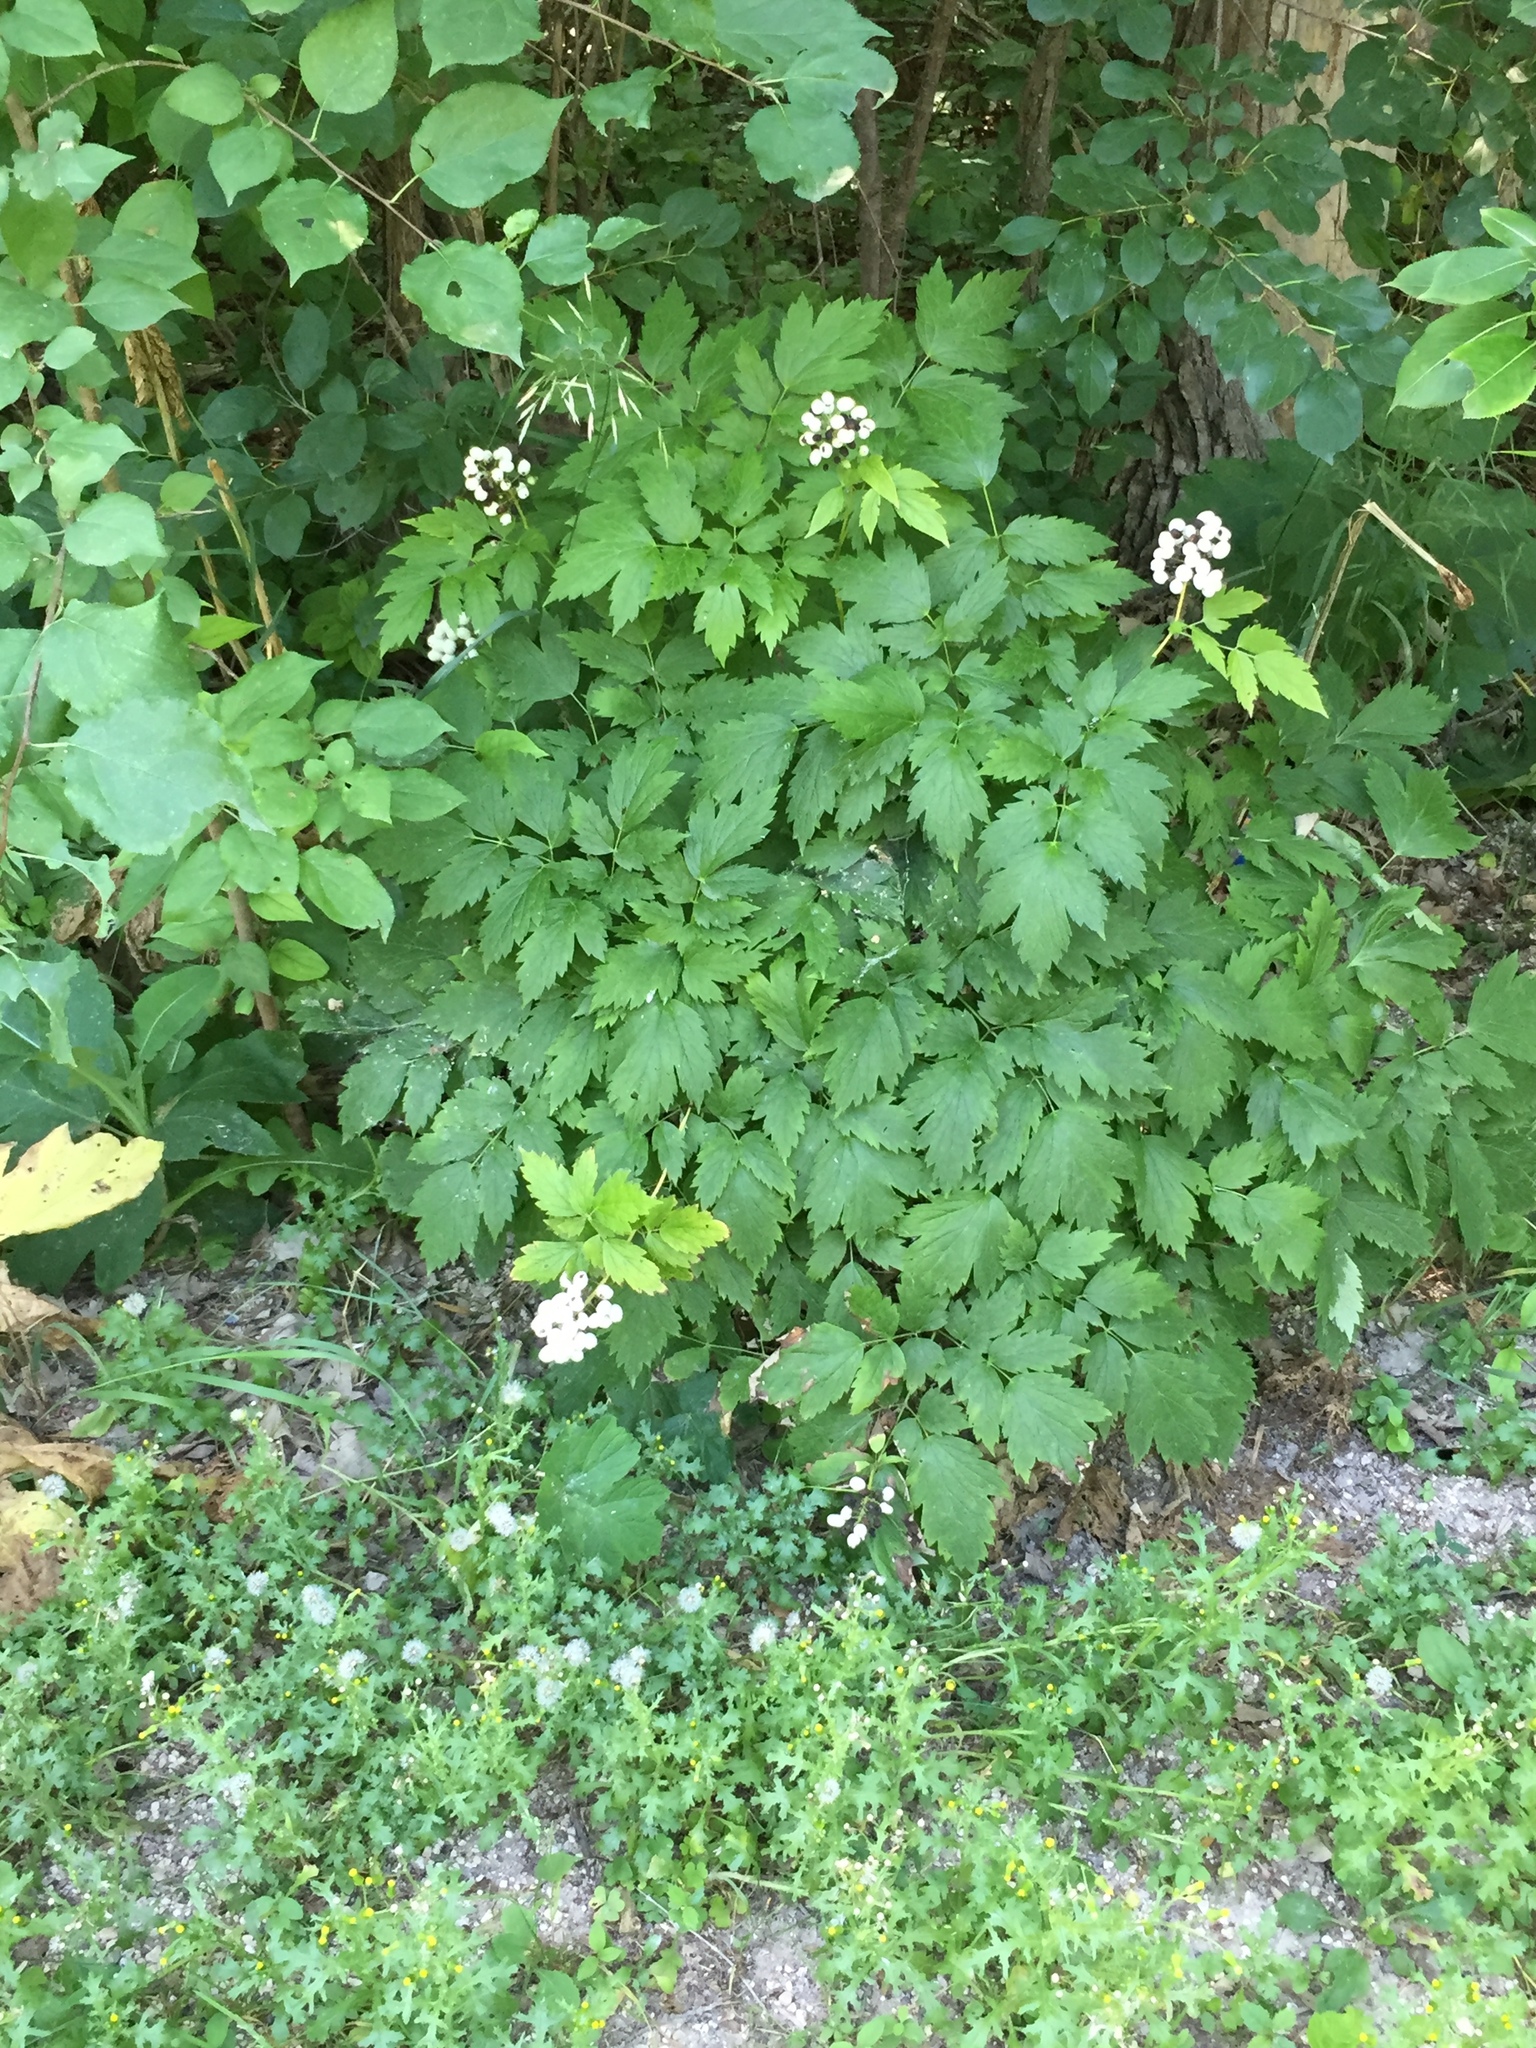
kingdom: Plantae
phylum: Tracheophyta
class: Magnoliopsida
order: Ranunculales
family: Ranunculaceae
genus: Actaea
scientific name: Actaea rubra
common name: Red baneberry
